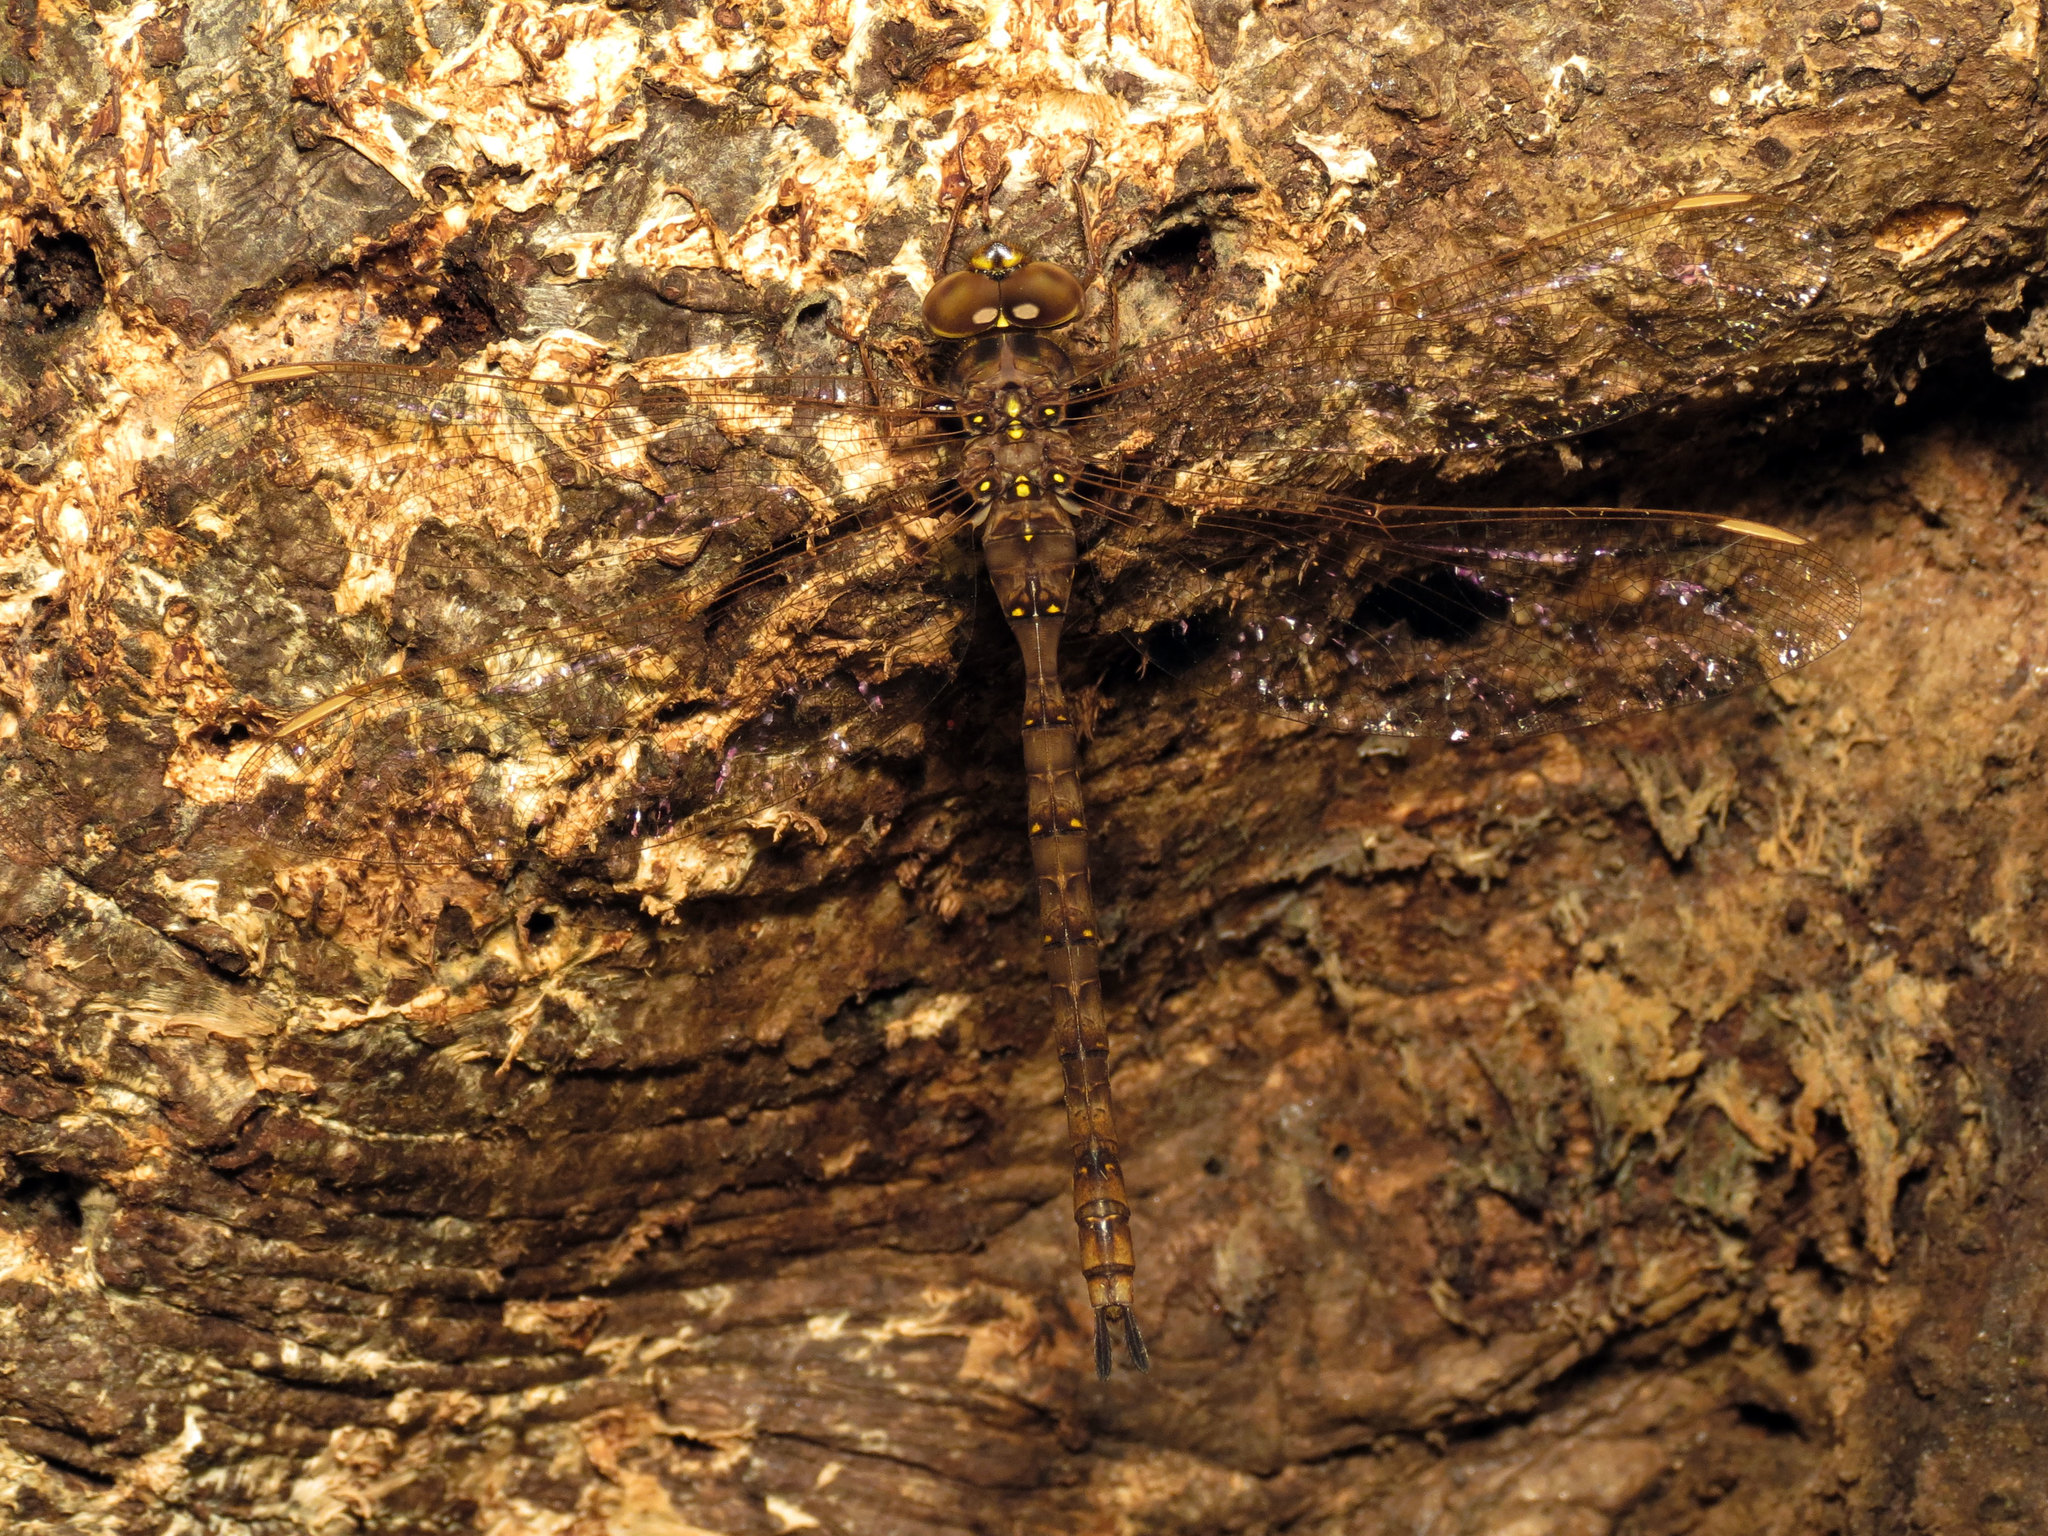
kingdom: Animalia
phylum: Arthropoda
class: Insecta
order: Odonata
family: Aeshnidae
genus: Boyeria
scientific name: Boyeria vinosa
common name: Fawn darner
